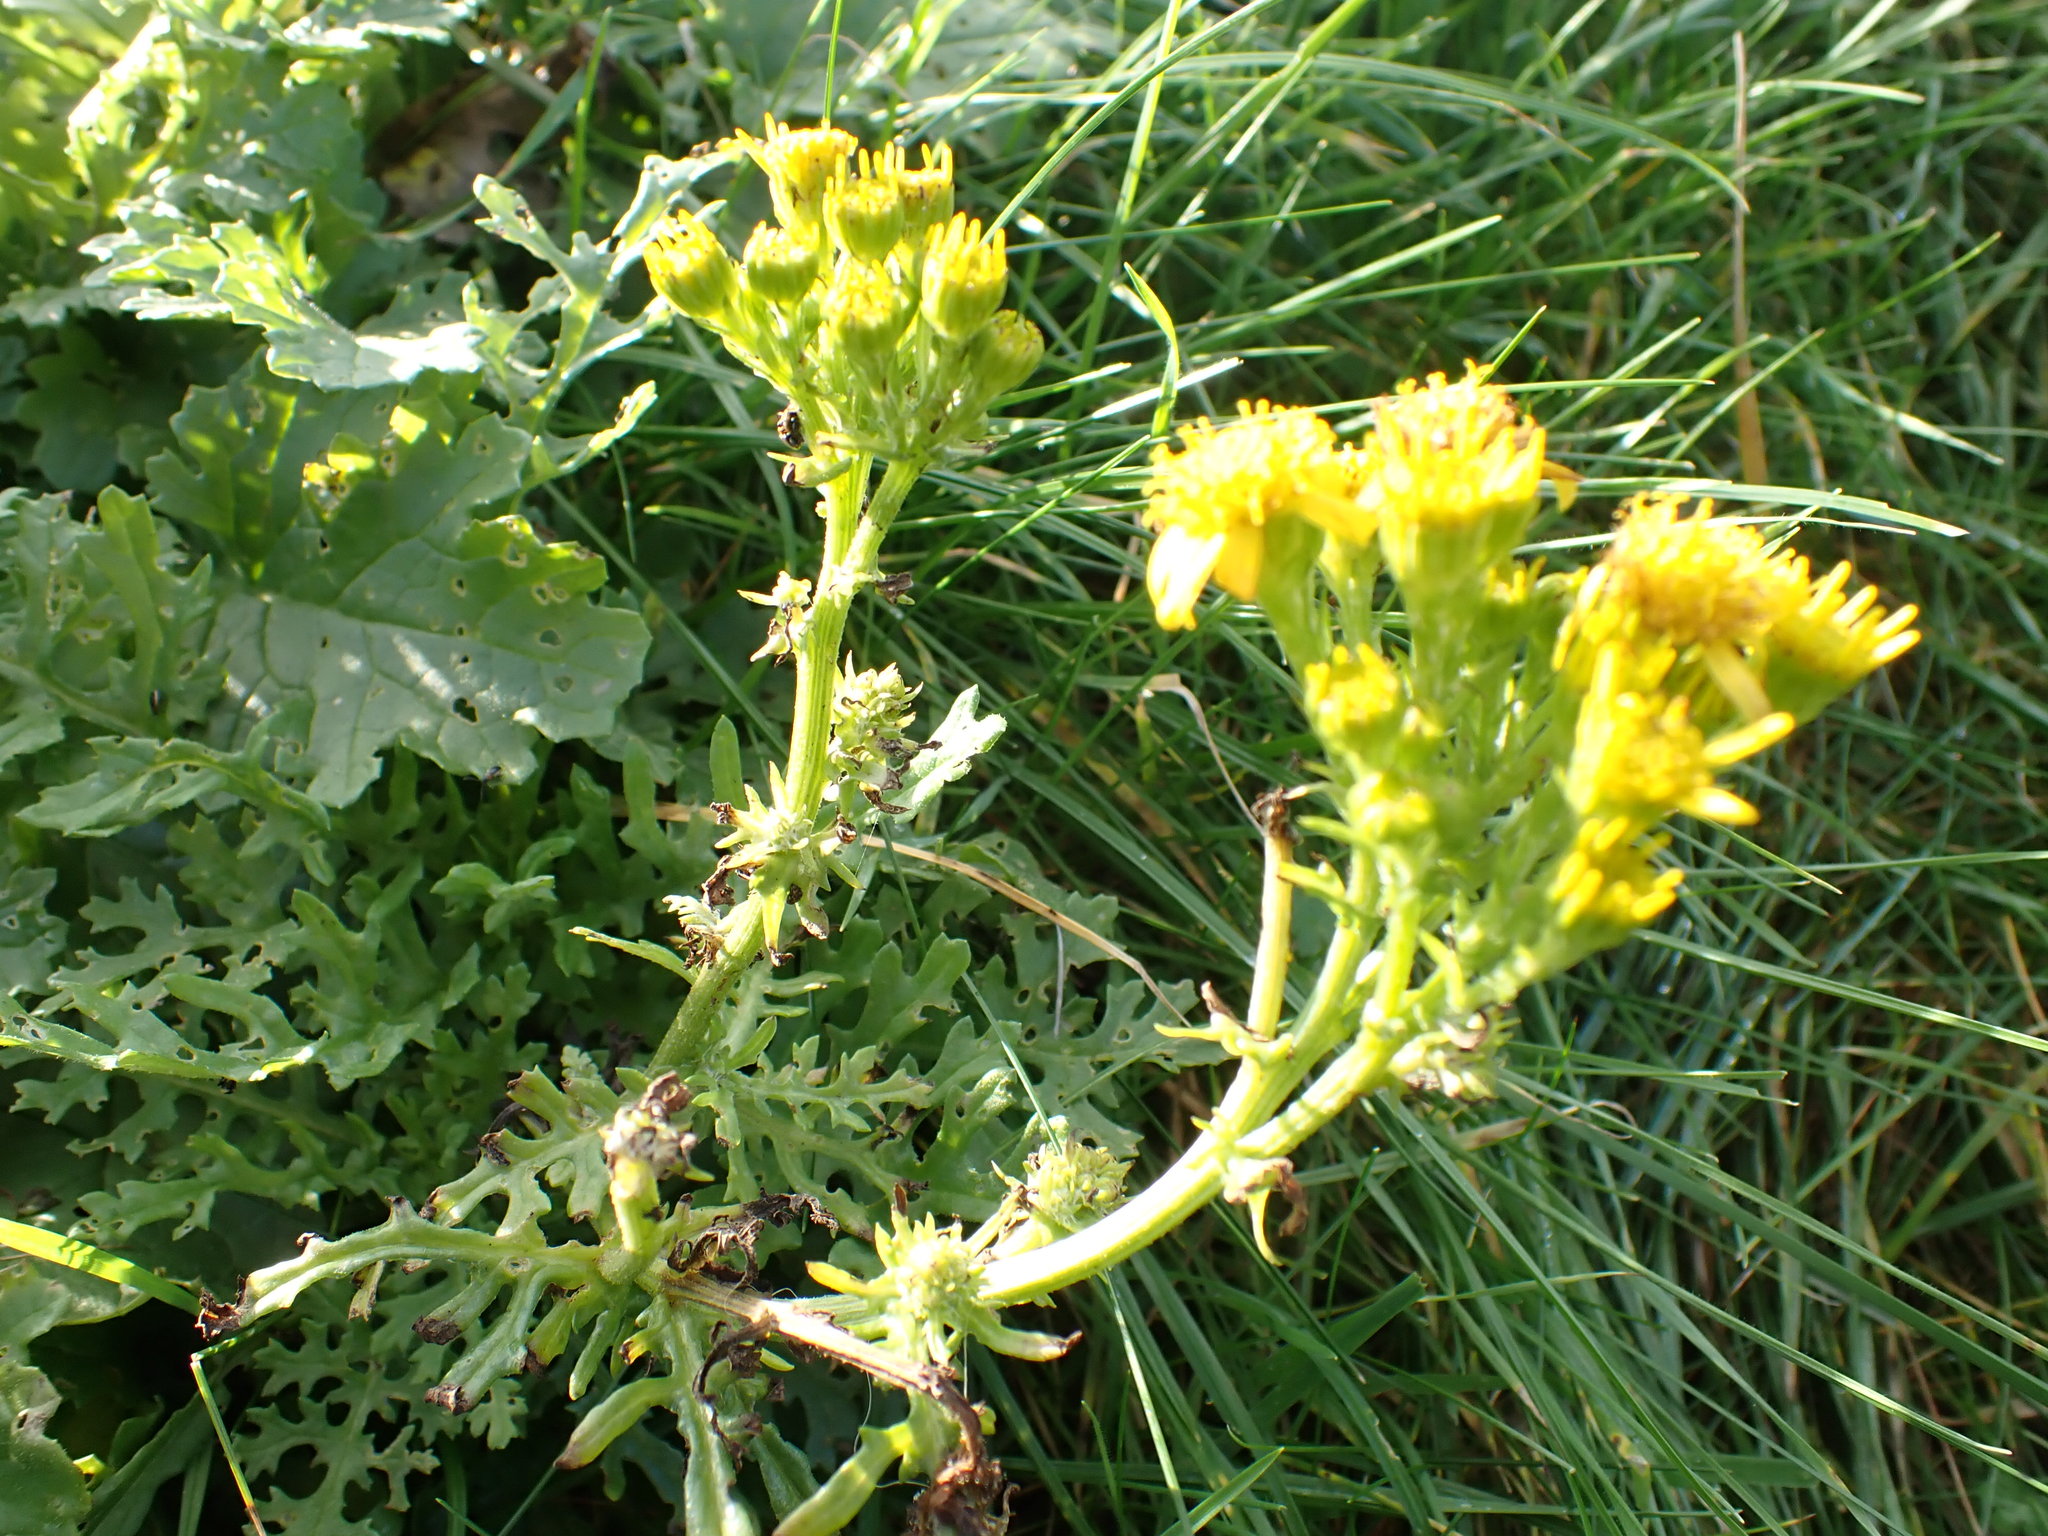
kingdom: Plantae
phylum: Tracheophyta
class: Magnoliopsida
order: Asterales
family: Asteraceae
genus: Jacobaea
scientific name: Jacobaea vulgaris
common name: Stinking willie
